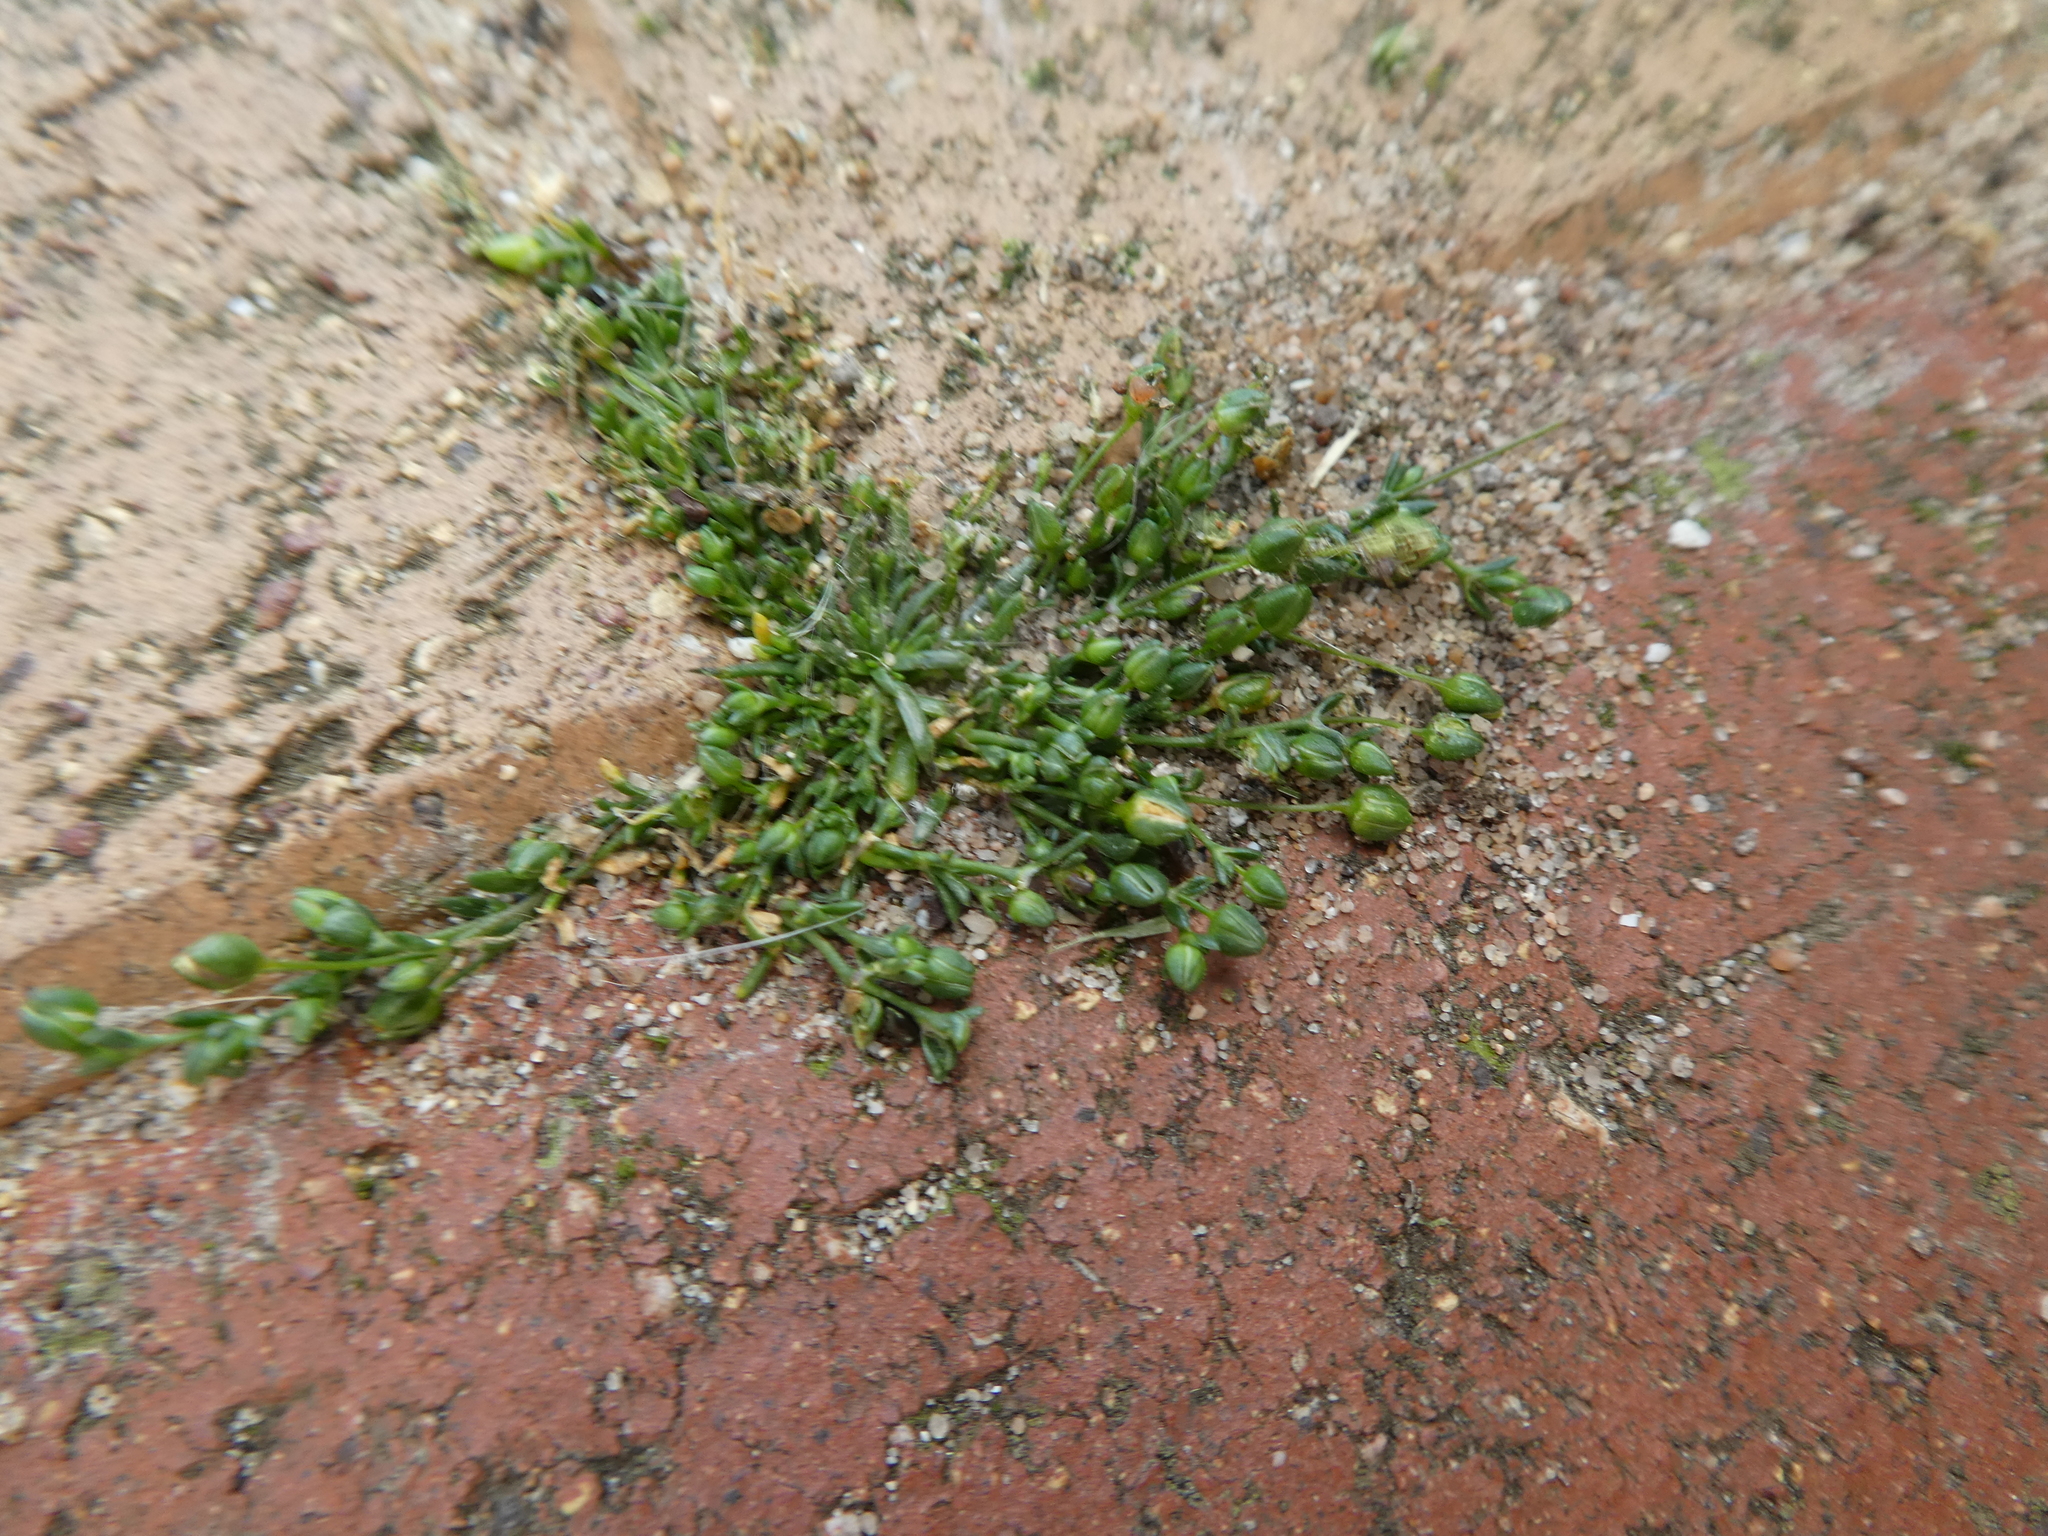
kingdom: Plantae
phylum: Tracheophyta
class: Magnoliopsida
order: Caryophyllales
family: Caryophyllaceae
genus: Sagina
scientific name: Sagina procumbens
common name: Procumbent pearlwort
